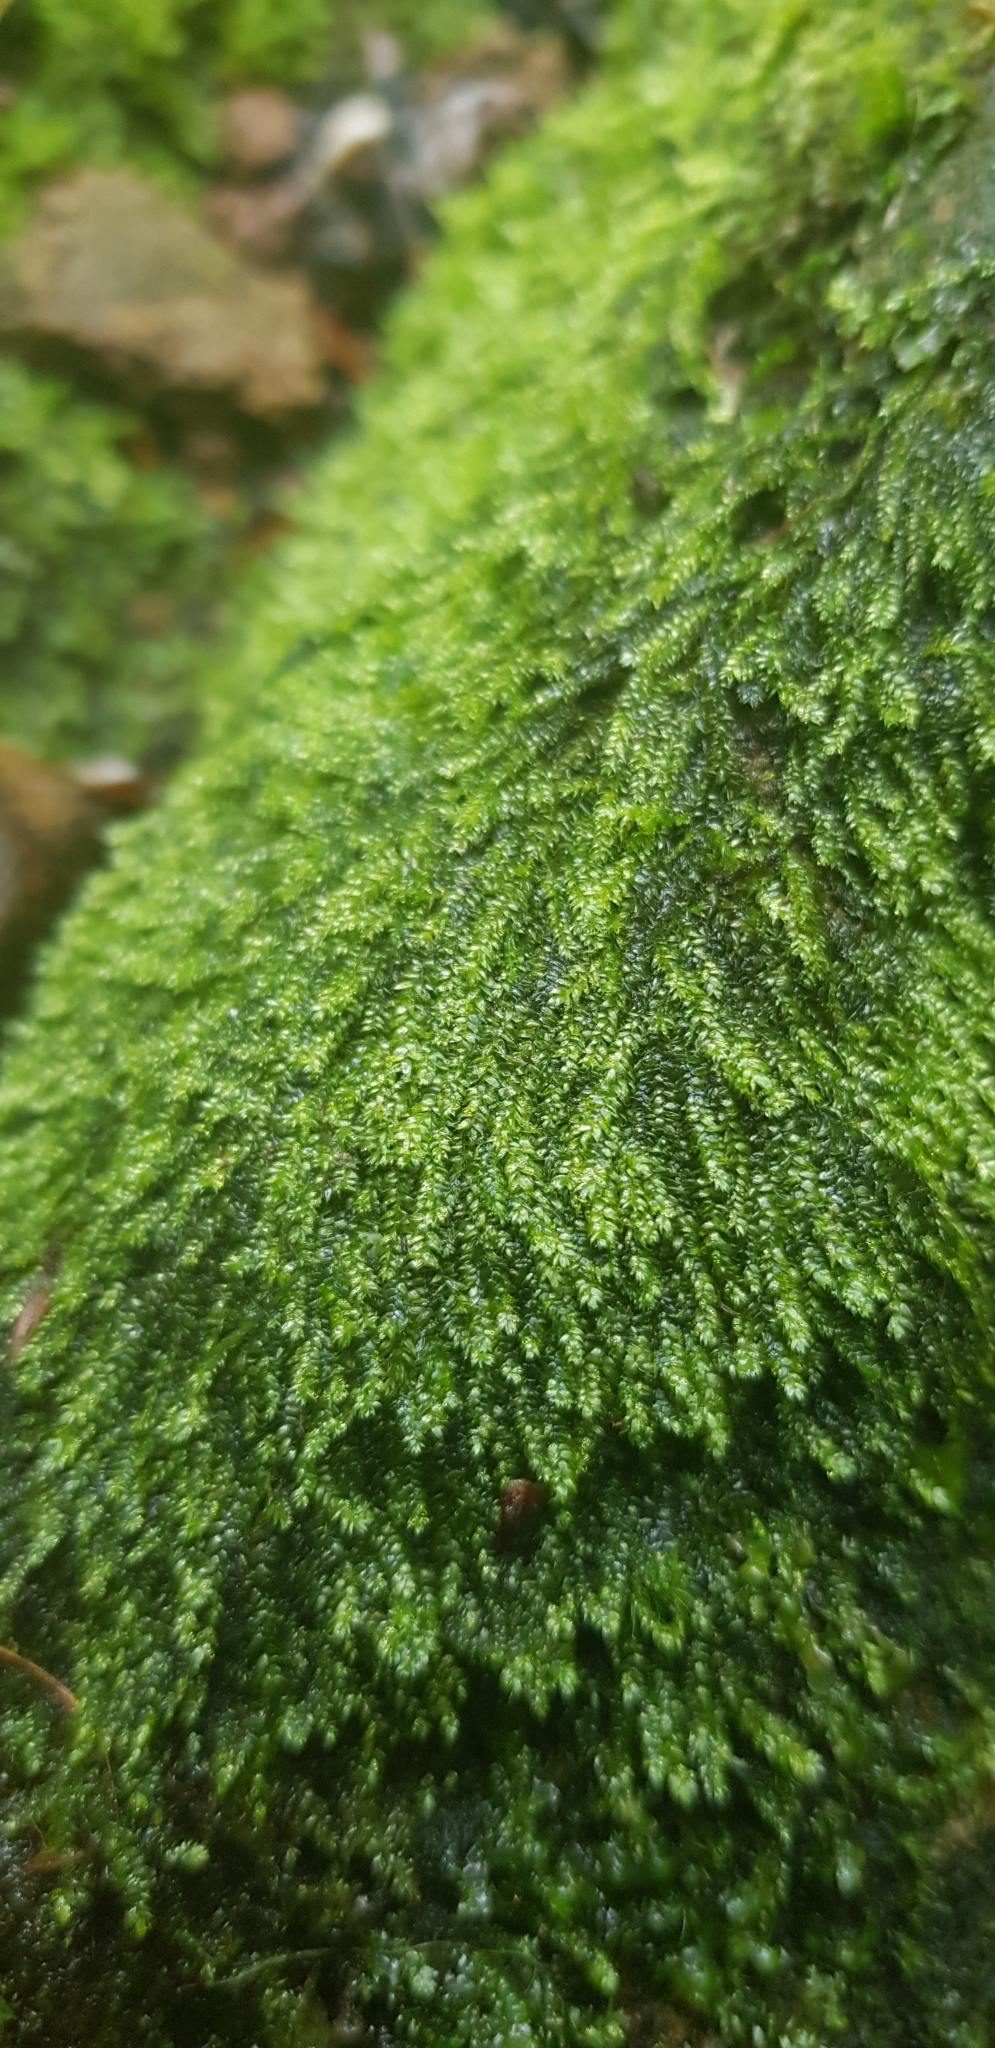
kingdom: Plantae
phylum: Bryophyta
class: Bryopsida
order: Hypnales
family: Plagiotheciaceae
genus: Pseudotaxiphyllum
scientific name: Pseudotaxiphyllum elegans
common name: Elegant silk moss
